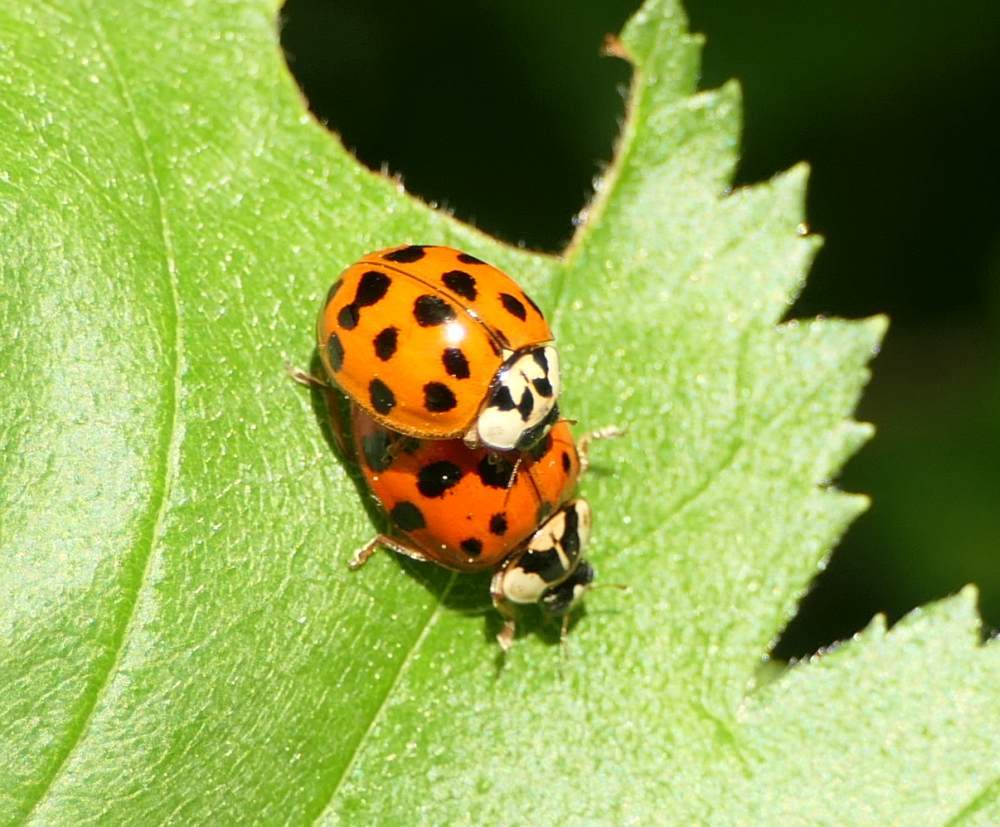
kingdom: Animalia
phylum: Arthropoda
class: Insecta
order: Coleoptera
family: Coccinellidae
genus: Harmonia
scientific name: Harmonia axyridis
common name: Harlequin ladybird
